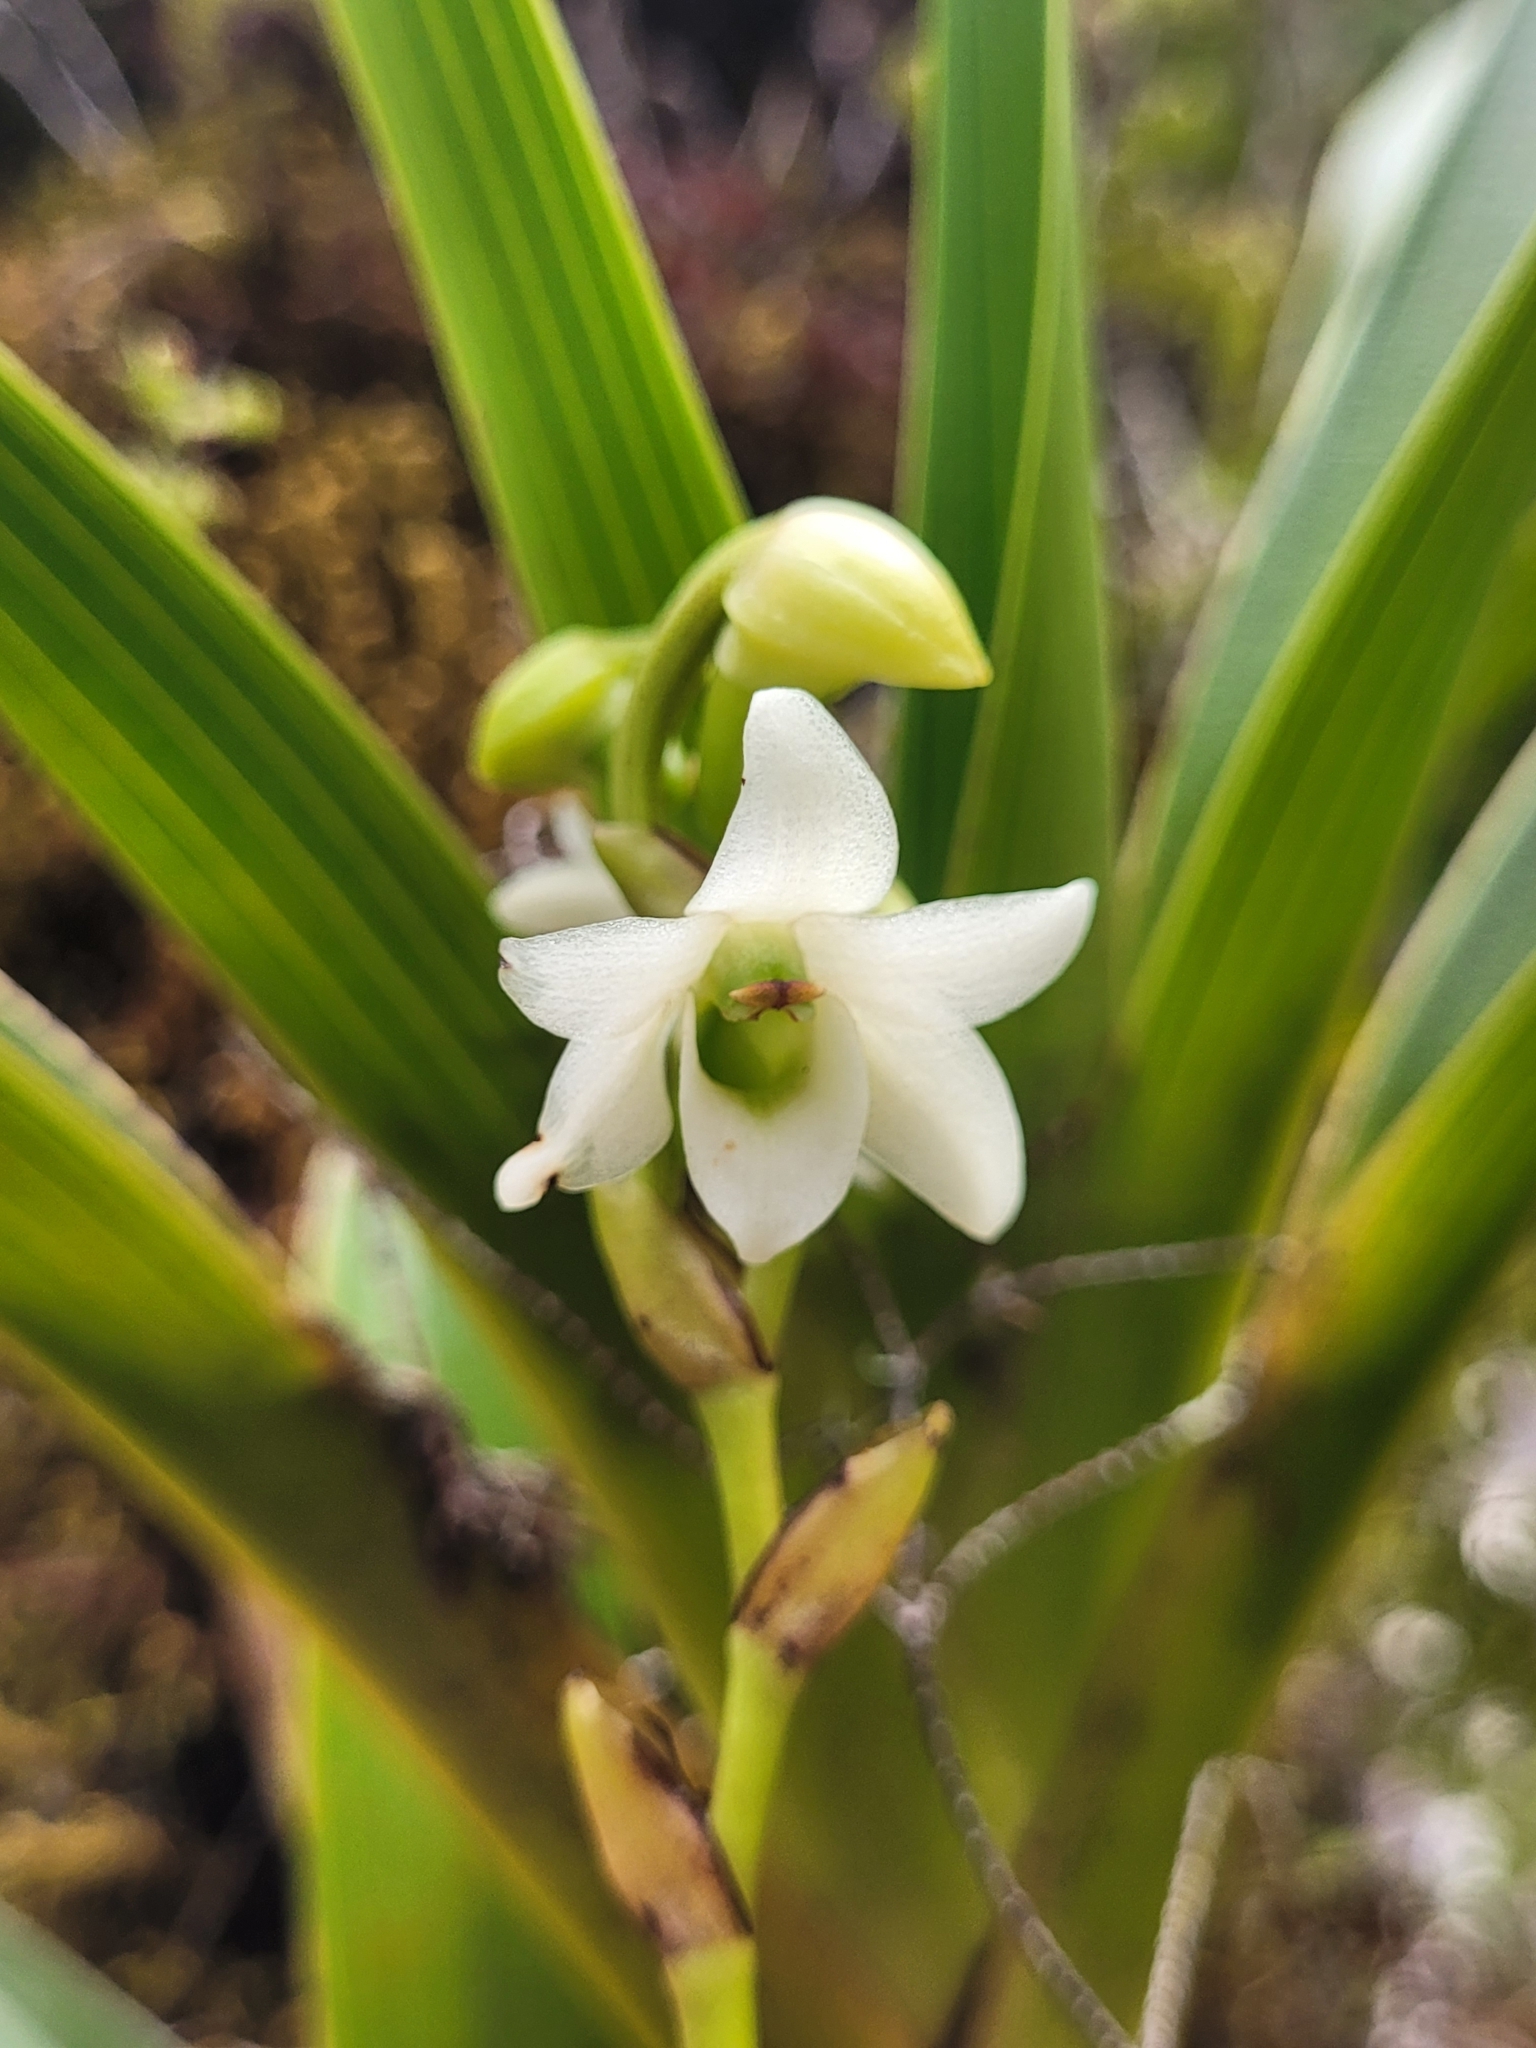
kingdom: Plantae
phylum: Tracheophyta
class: Liliopsida
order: Asparagales
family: Orchidaceae
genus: Angraecum
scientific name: Angraecum striatum
